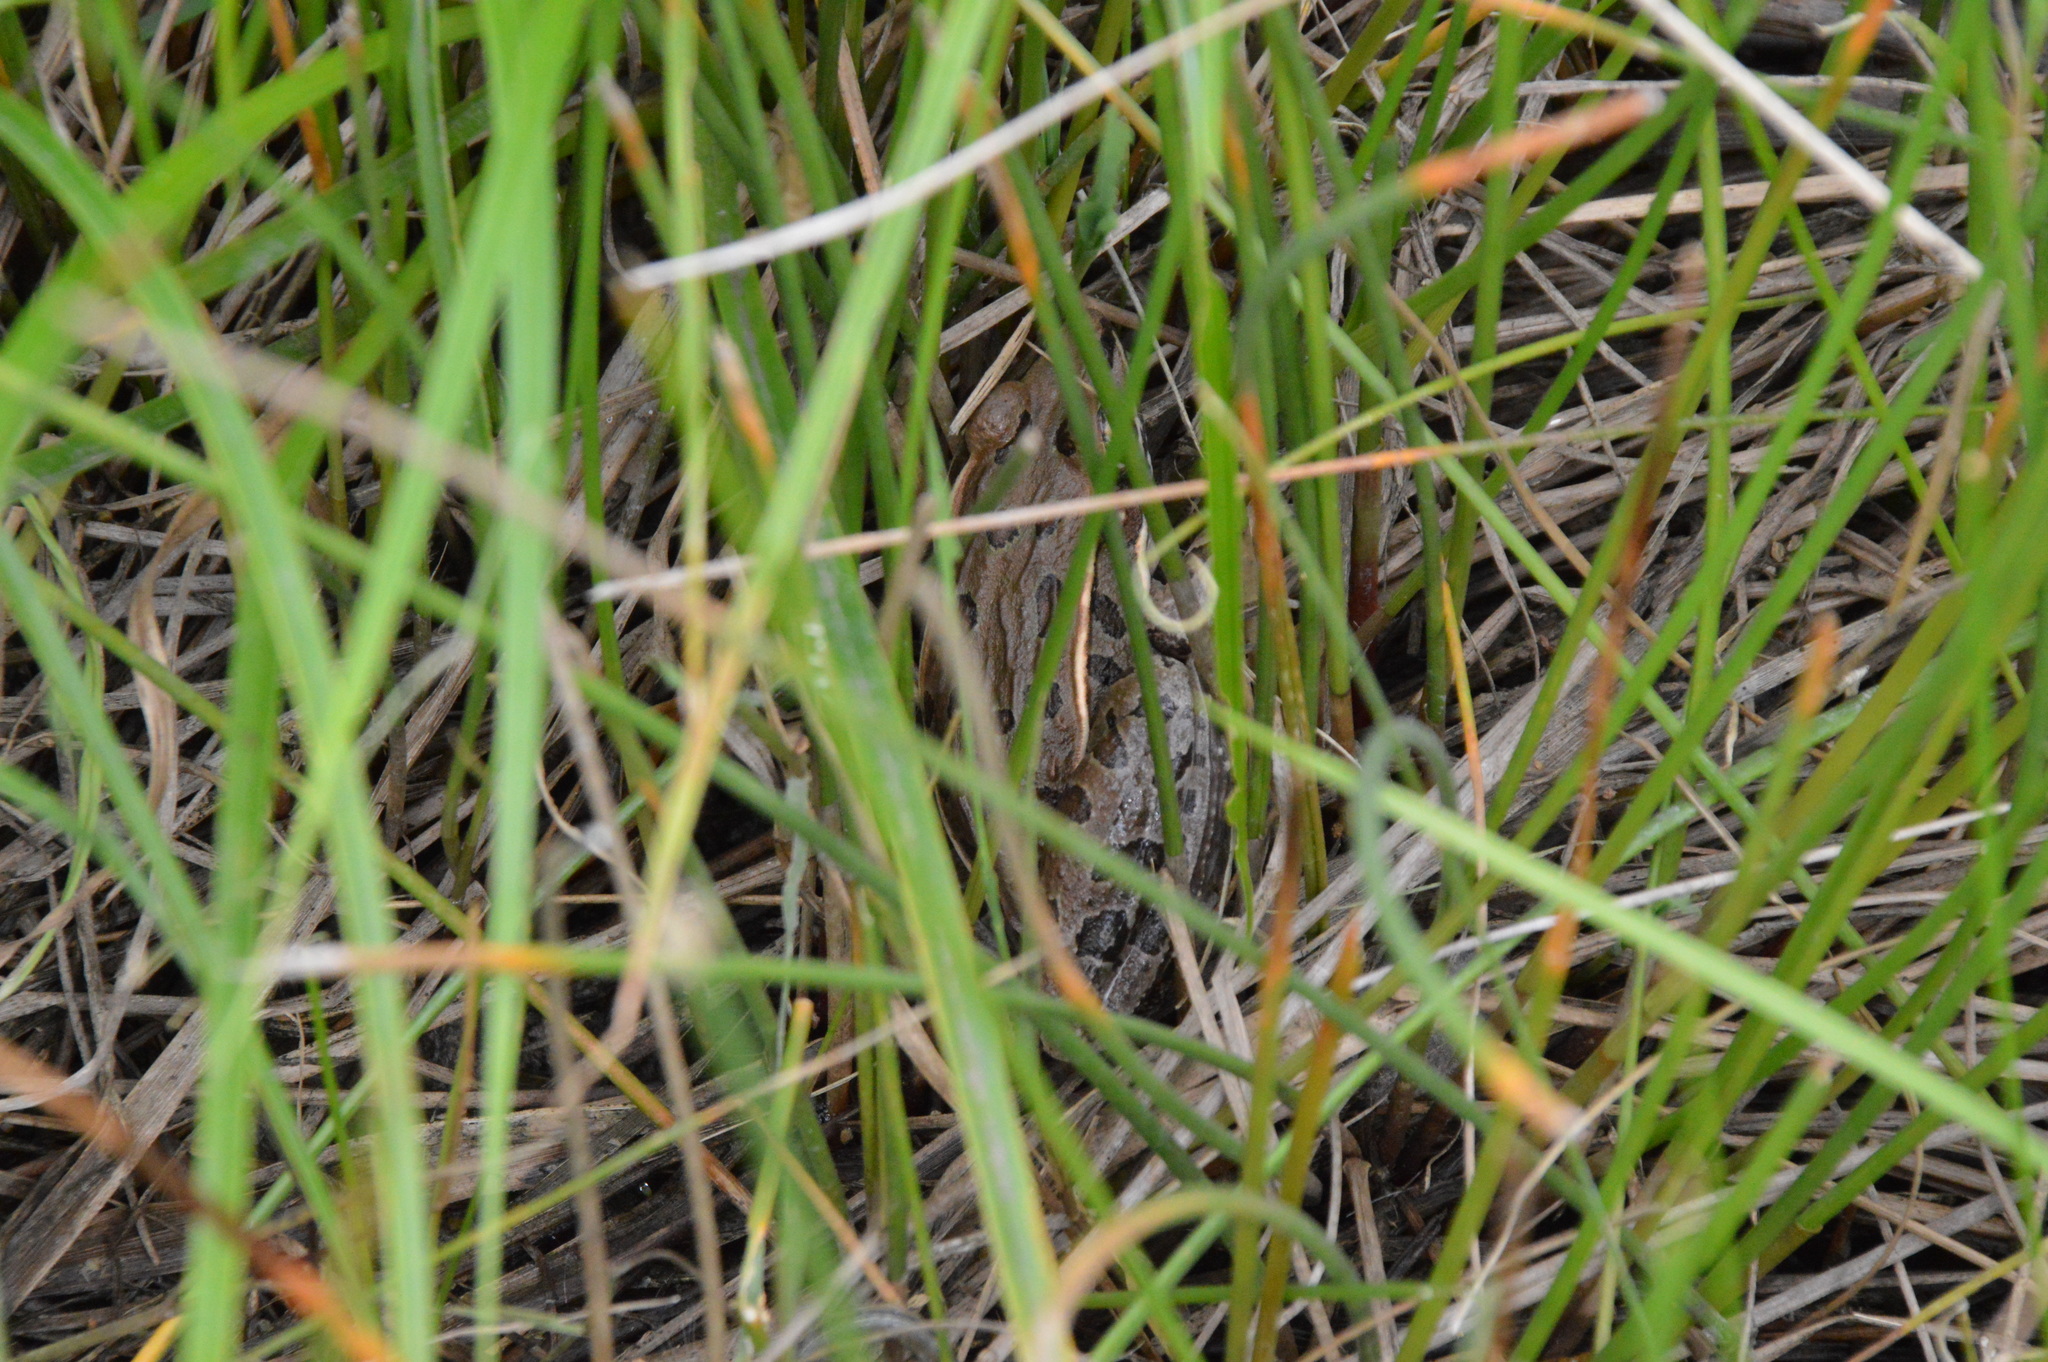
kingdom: Animalia
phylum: Chordata
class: Amphibia
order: Anura
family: Ranidae
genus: Lithobates
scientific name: Lithobates sphenocephalus
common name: Southern leopard frog
